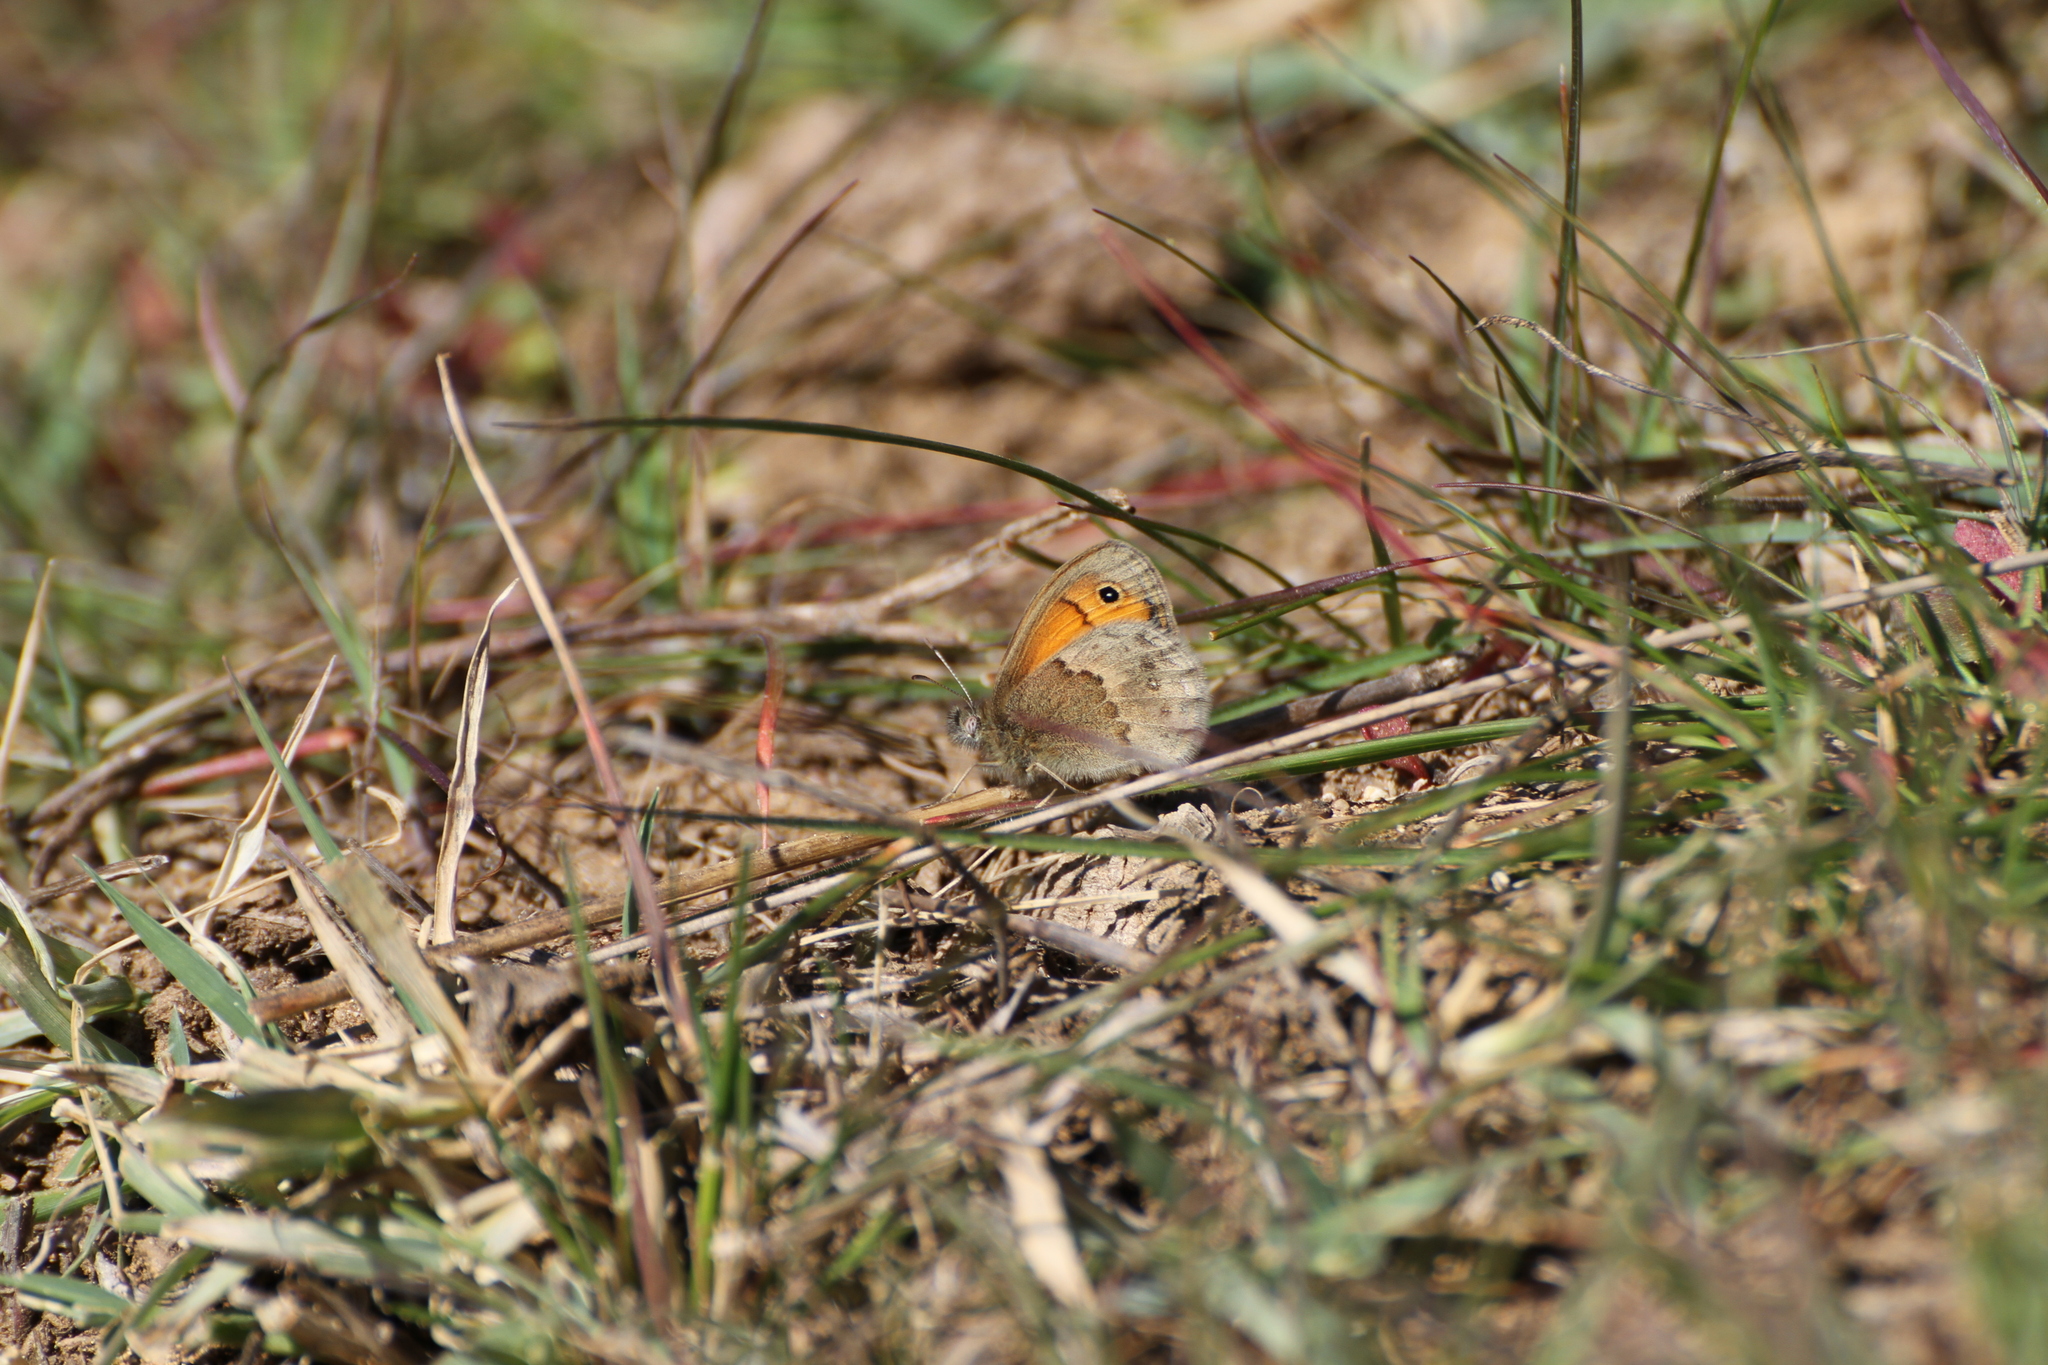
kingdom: Animalia
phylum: Arthropoda
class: Insecta
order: Lepidoptera
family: Nymphalidae
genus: Coenonympha
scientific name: Coenonympha pamphilus
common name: Small heath
